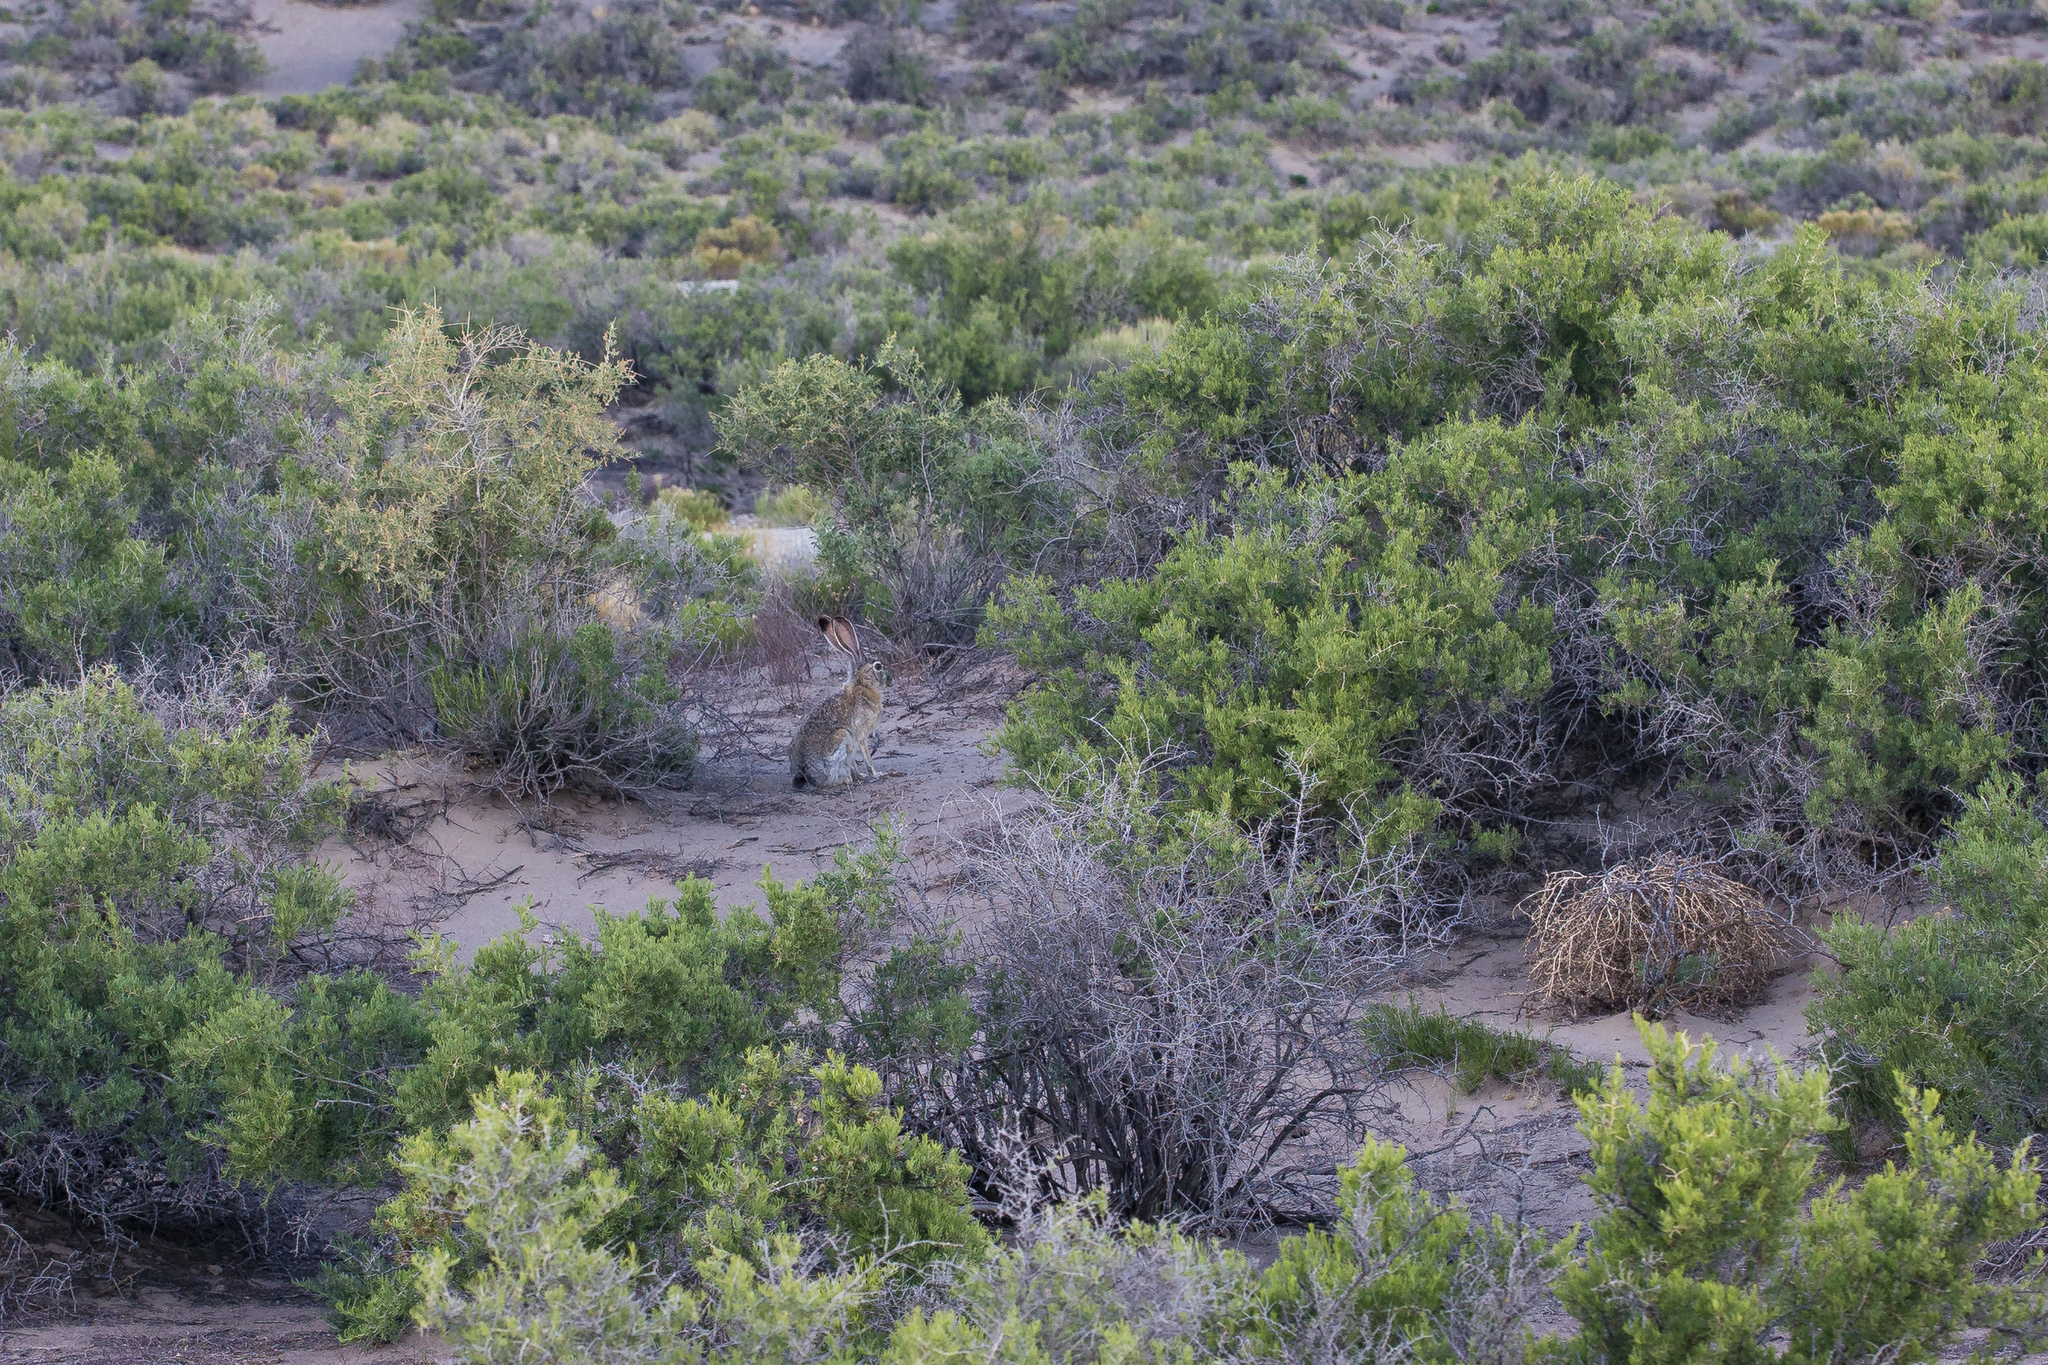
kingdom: Animalia
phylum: Chordata
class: Mammalia
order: Lagomorpha
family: Leporidae
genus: Lepus
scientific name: Lepus californicus
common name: Black-tailed jackrabbit
